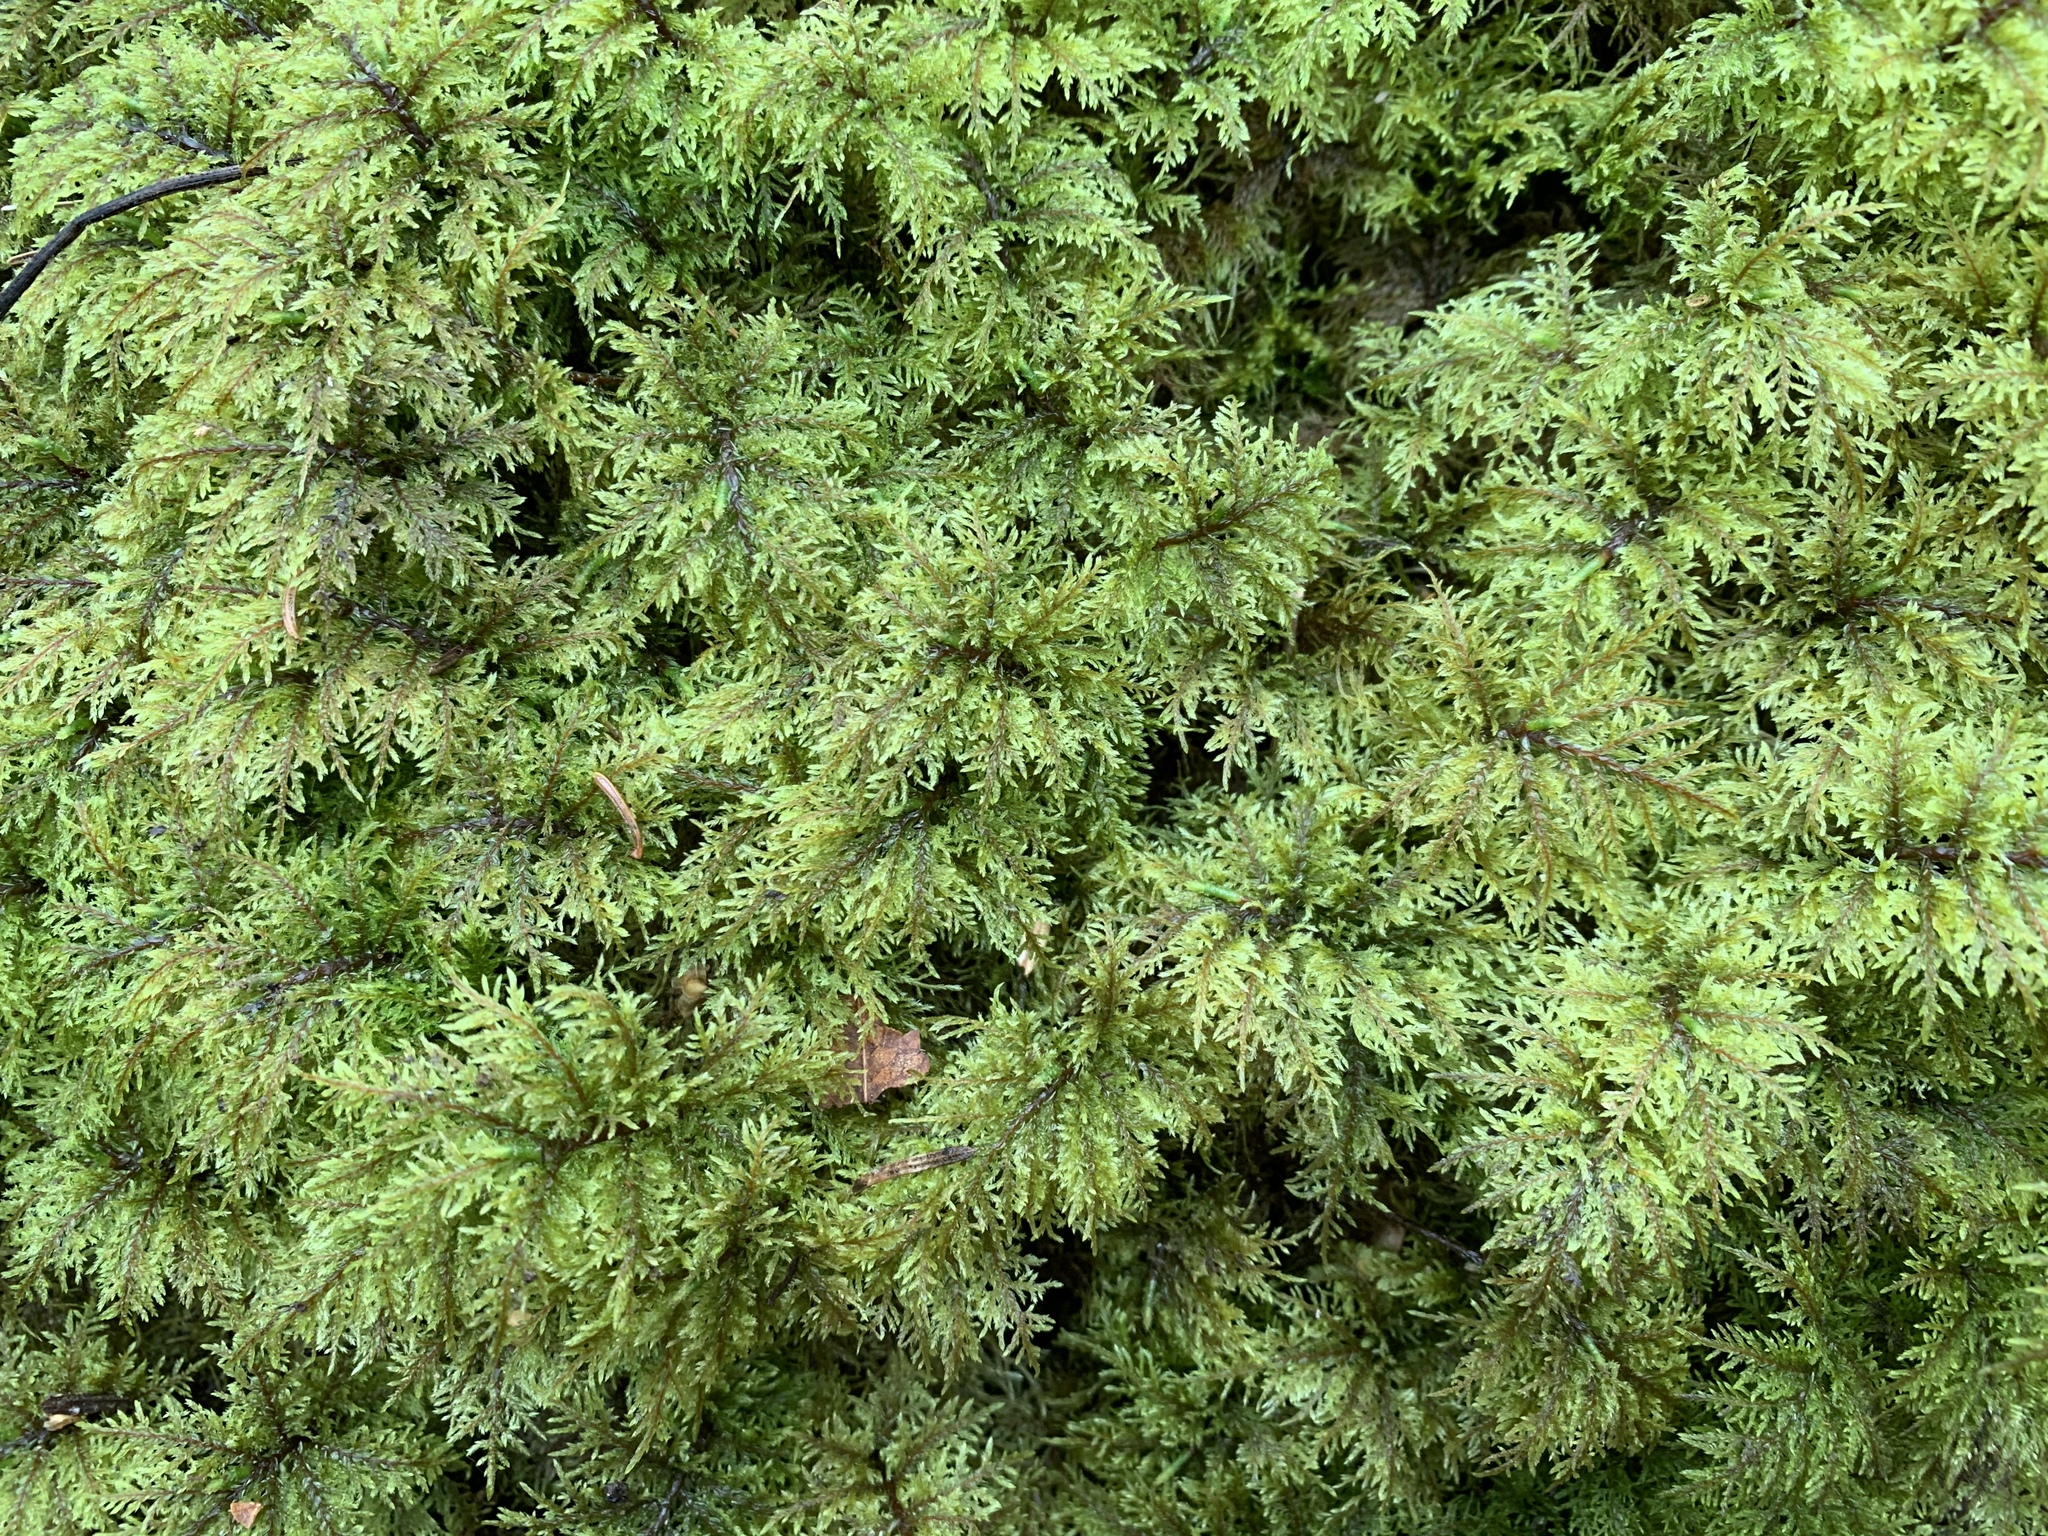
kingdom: Plantae
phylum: Bryophyta
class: Bryopsida
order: Hypnales
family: Hylocomiaceae
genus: Hylocomium
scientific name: Hylocomium splendens
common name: Stairstep moss
